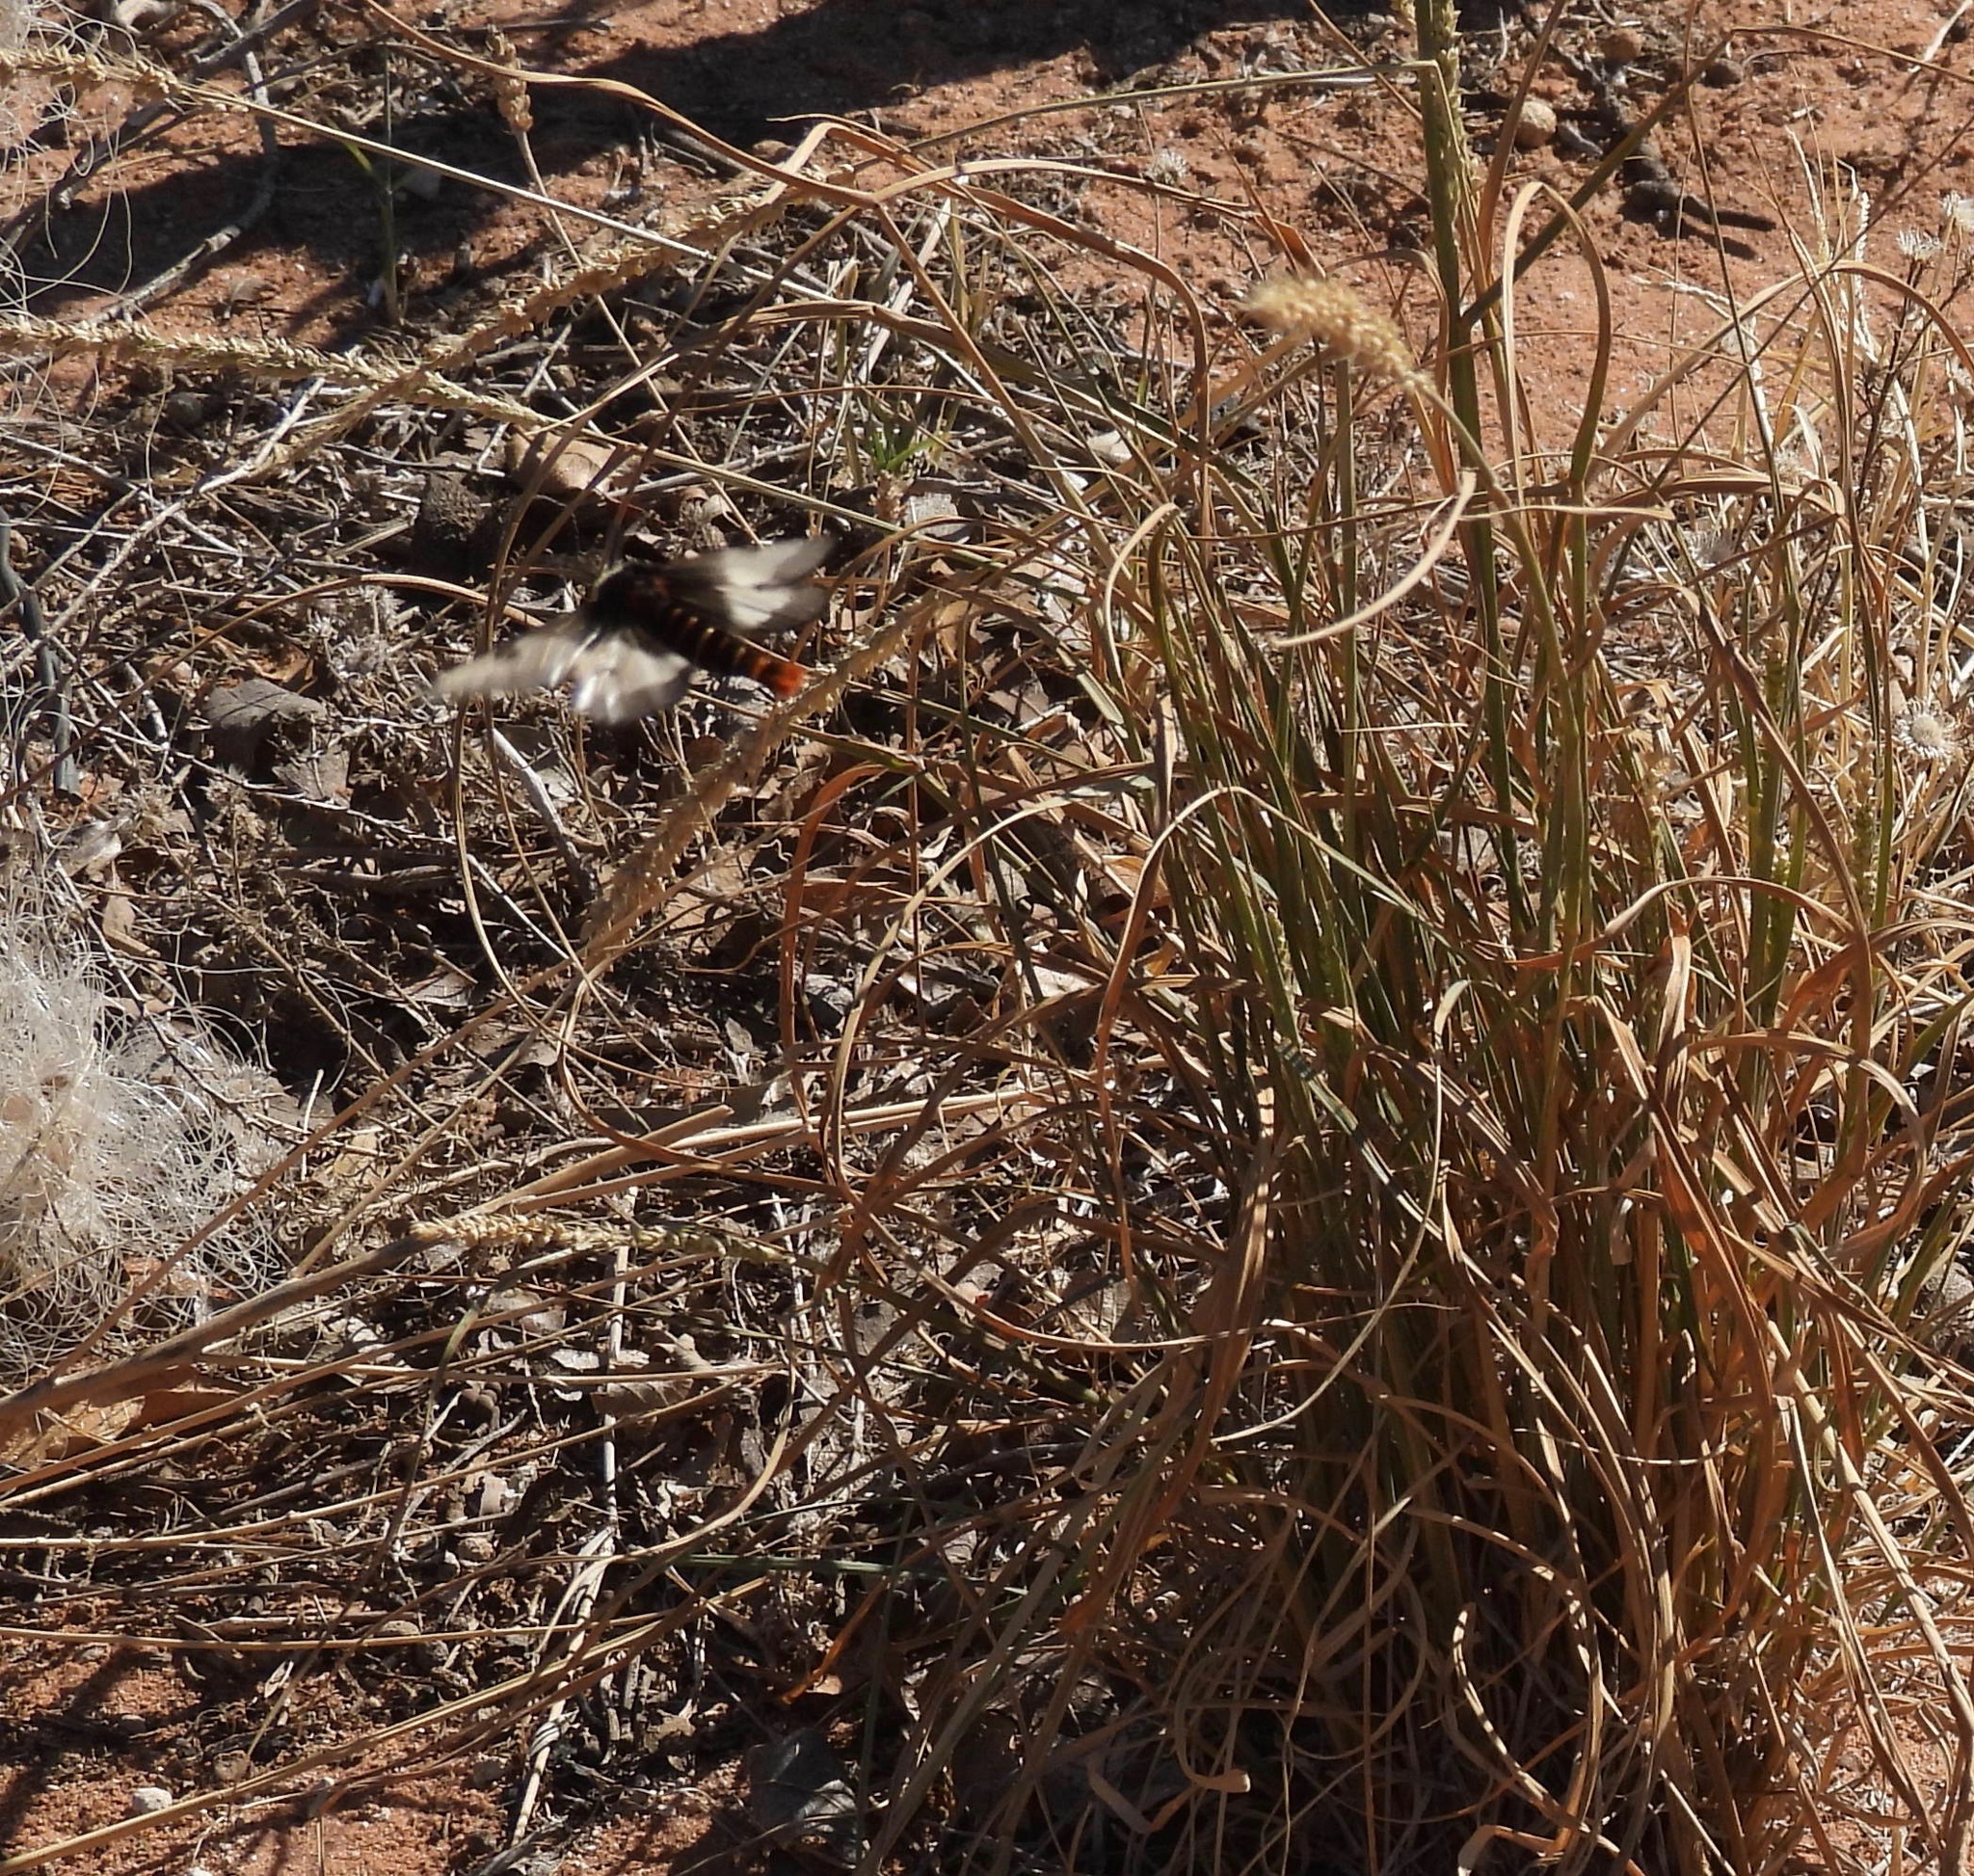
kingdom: Animalia
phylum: Arthropoda
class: Insecta
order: Lepidoptera
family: Saturniidae
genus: Hemileuca
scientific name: Hemileuca slosseri
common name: Slosser's buckmoth
